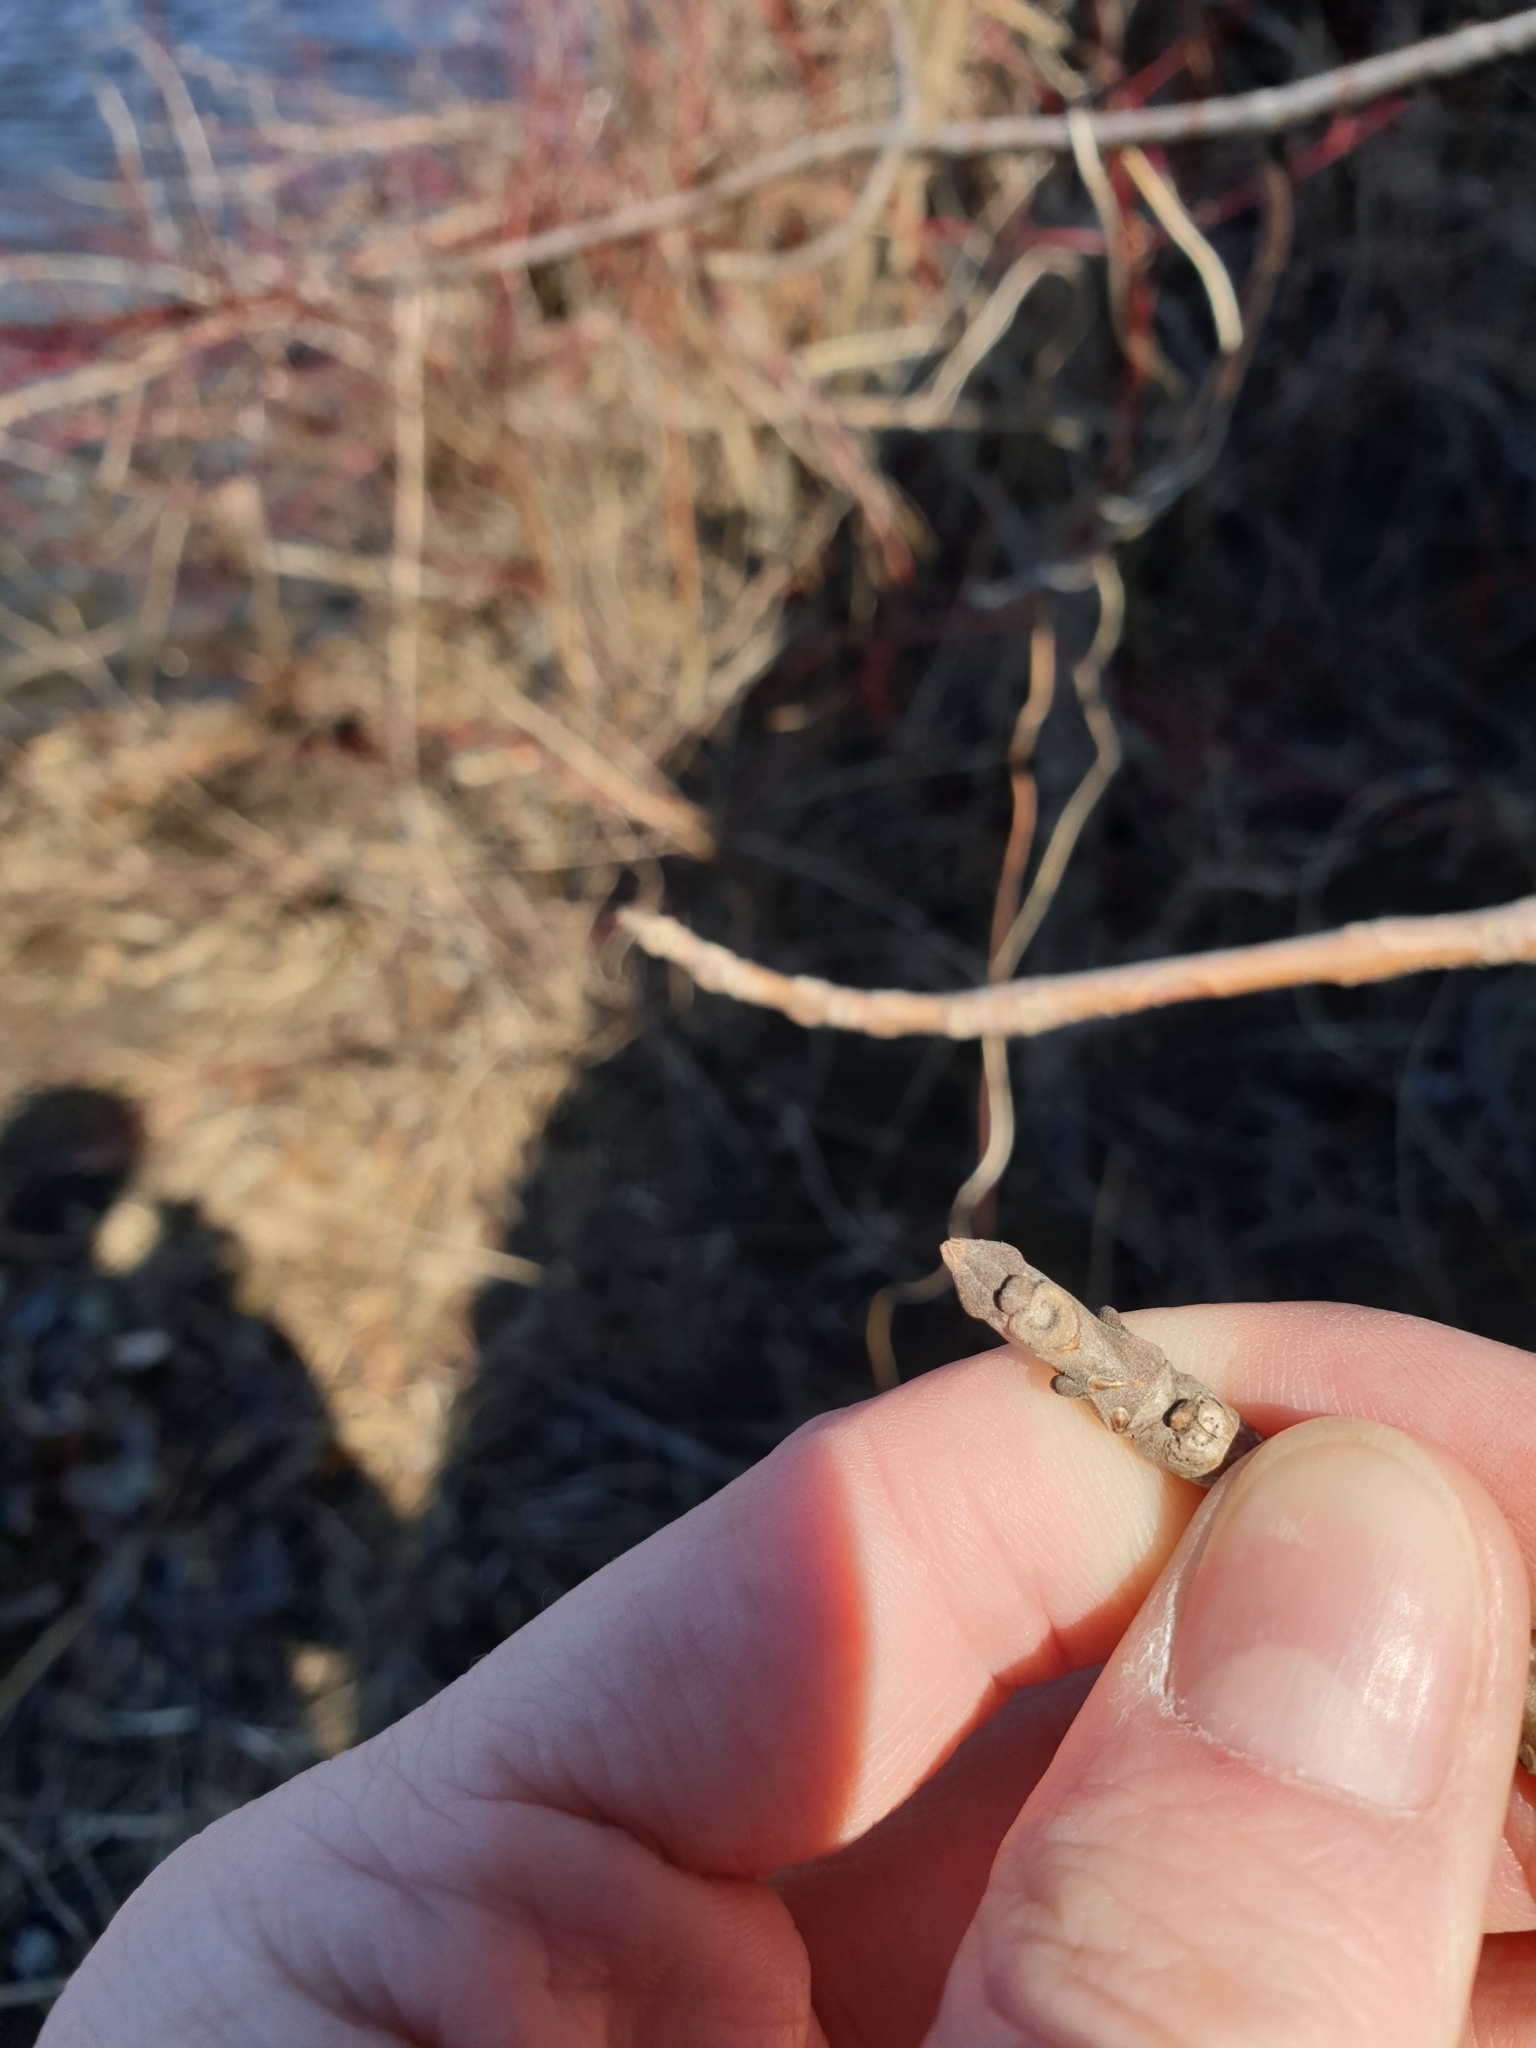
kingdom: Plantae
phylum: Tracheophyta
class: Magnoliopsida
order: Lamiales
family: Oleaceae
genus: Fraxinus
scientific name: Fraxinus pennsylvanica
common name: Green ash
